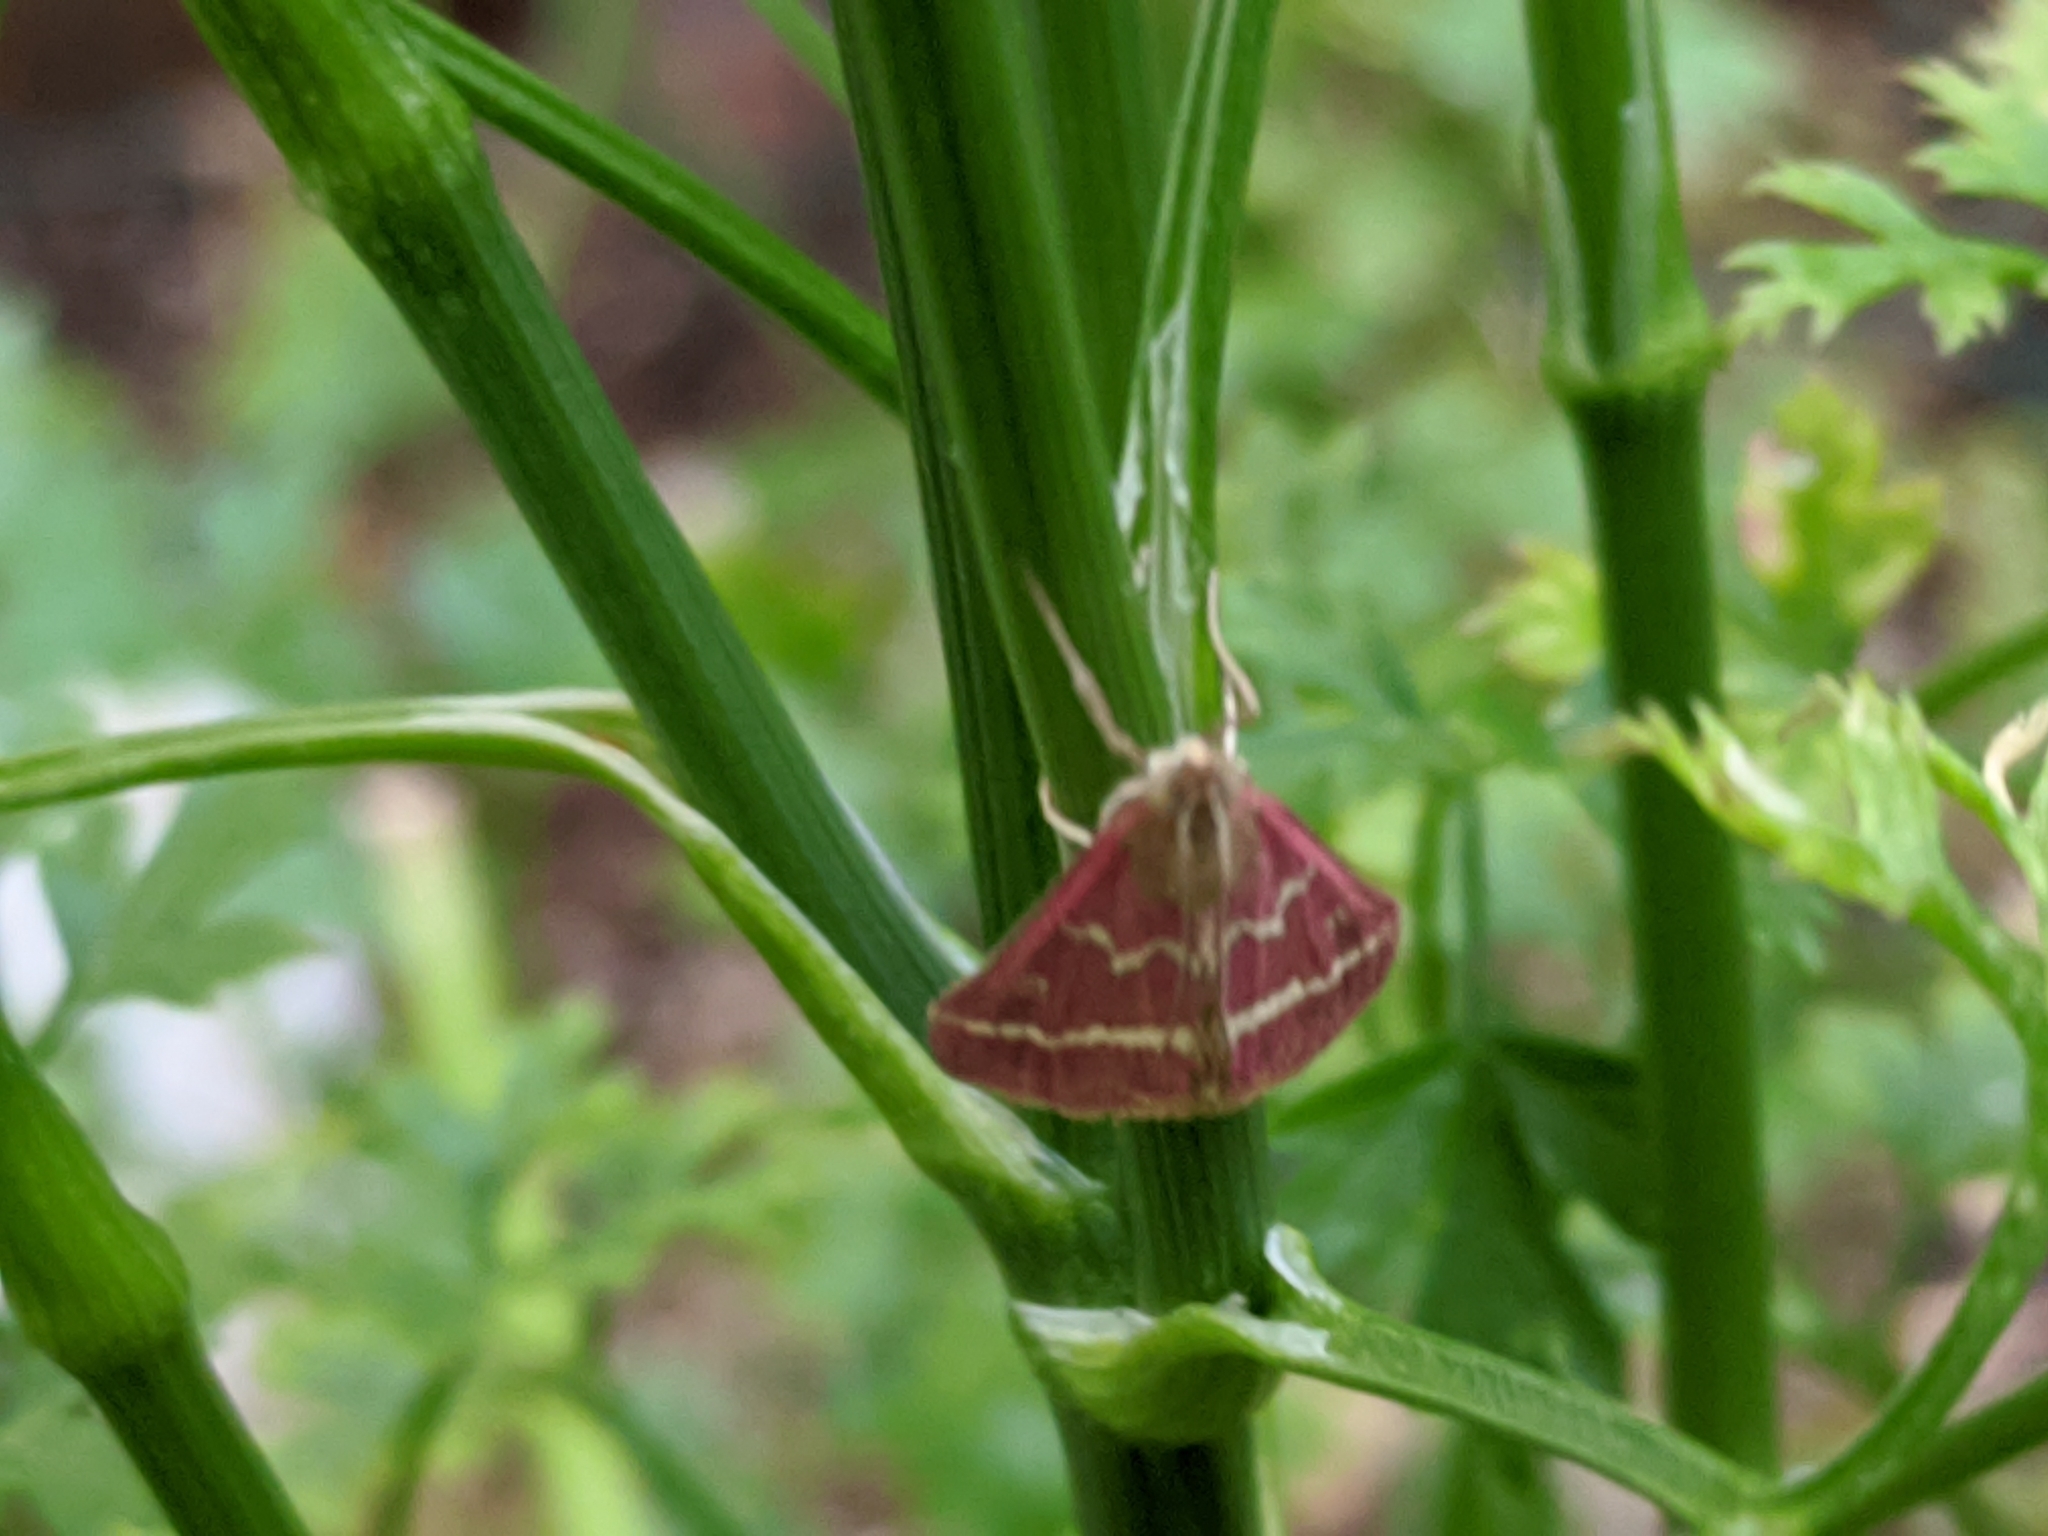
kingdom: Animalia
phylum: Arthropoda
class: Insecta
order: Lepidoptera
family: Crambidae
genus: Pyrausta
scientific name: Pyrausta volupialis
